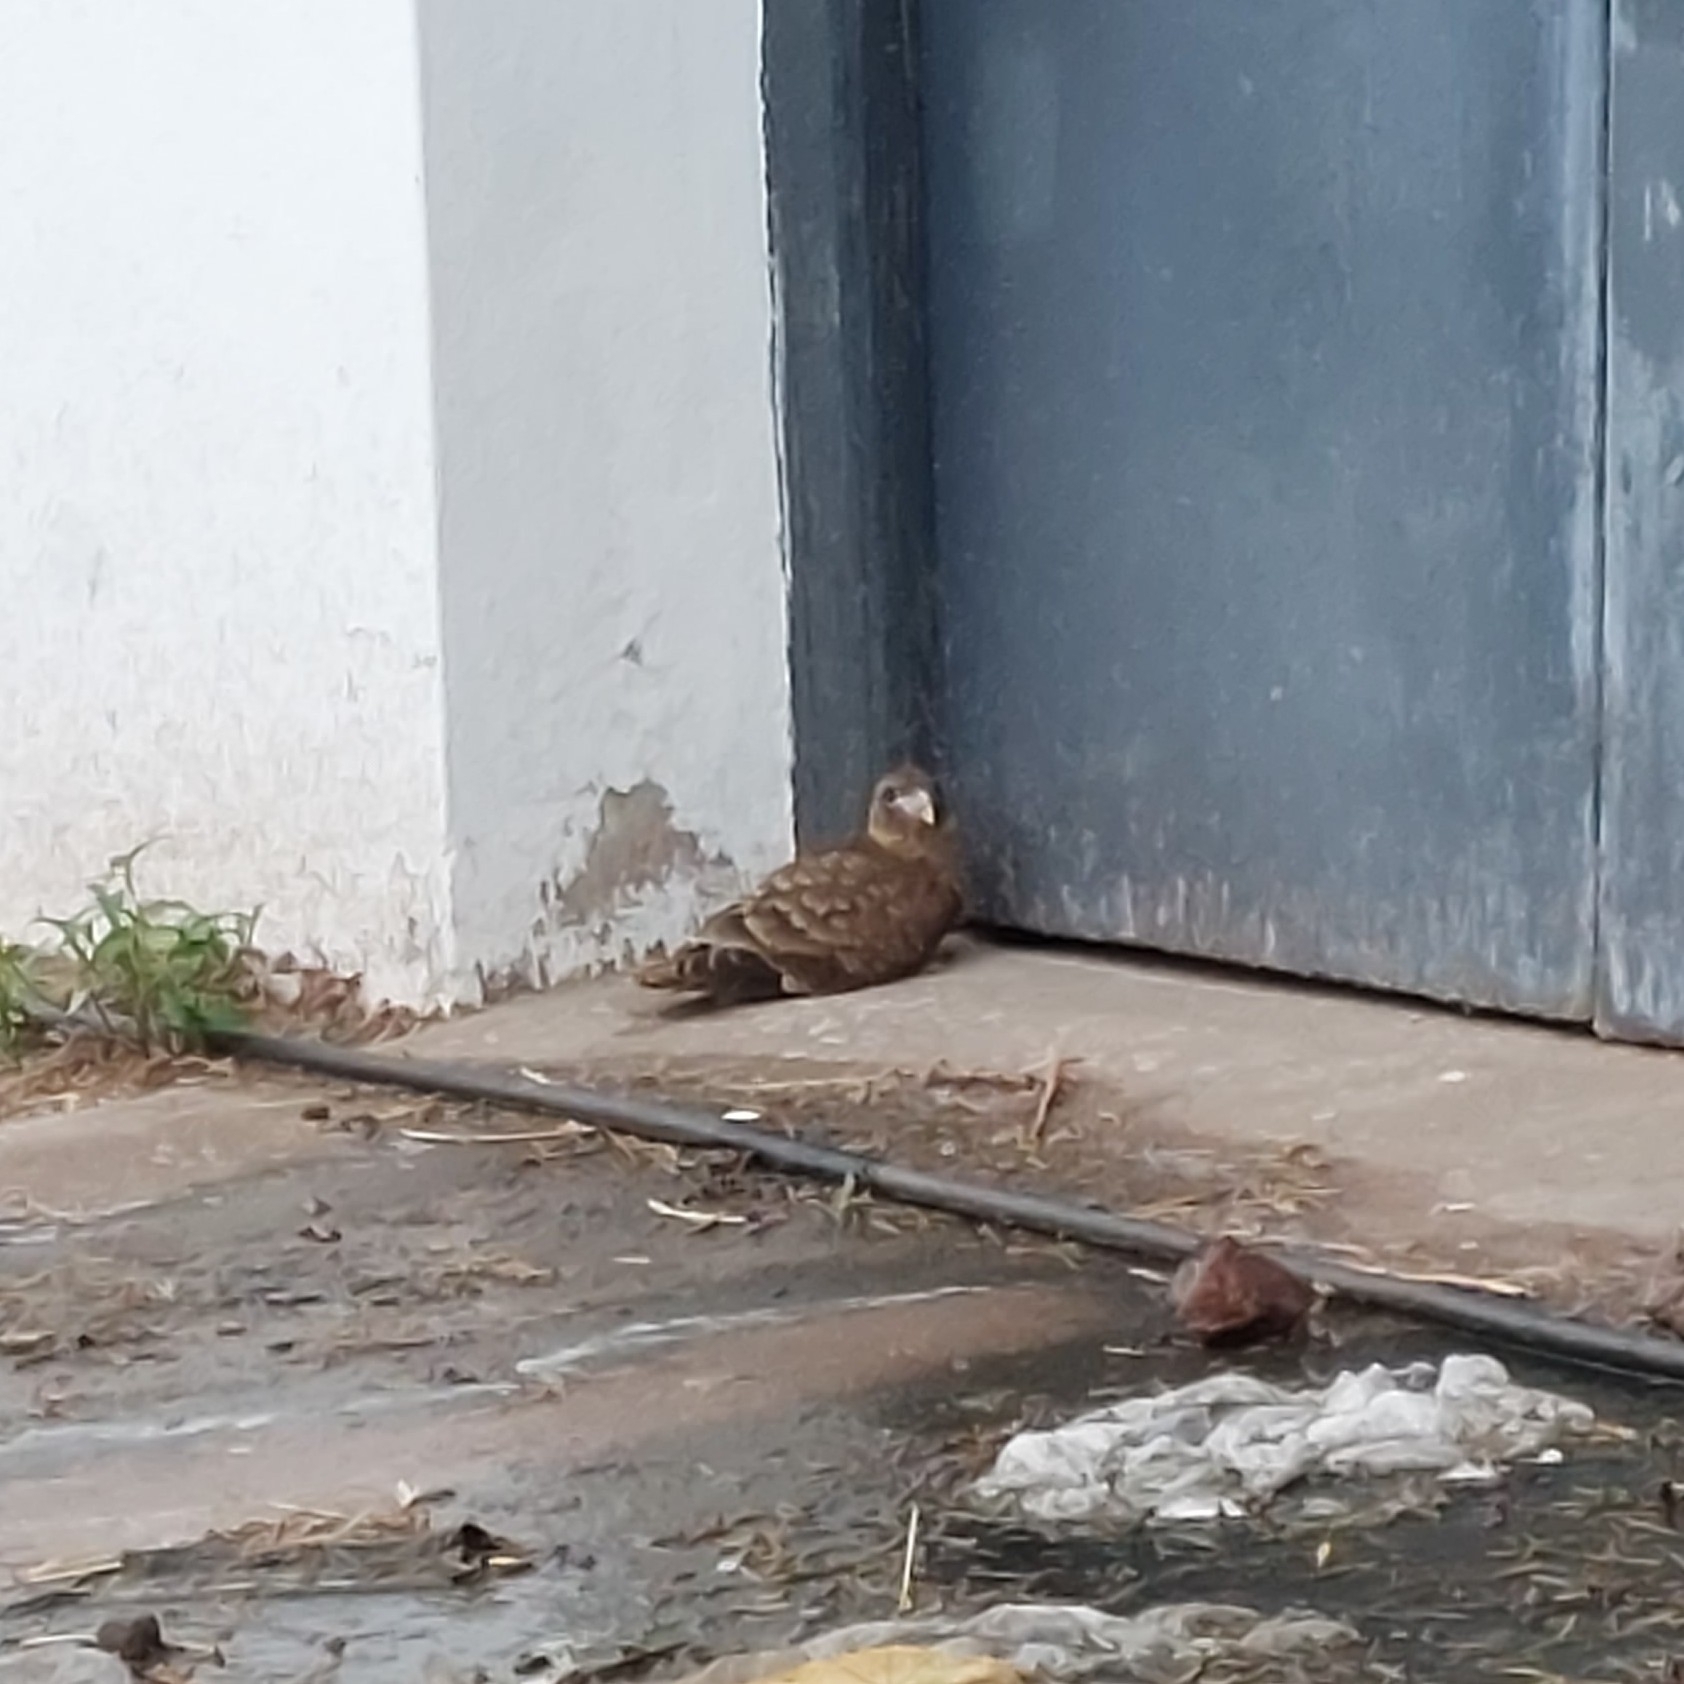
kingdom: Animalia
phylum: Chordata
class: Aves
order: Falconiformes
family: Falconidae
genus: Daptrius
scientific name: Daptrius
